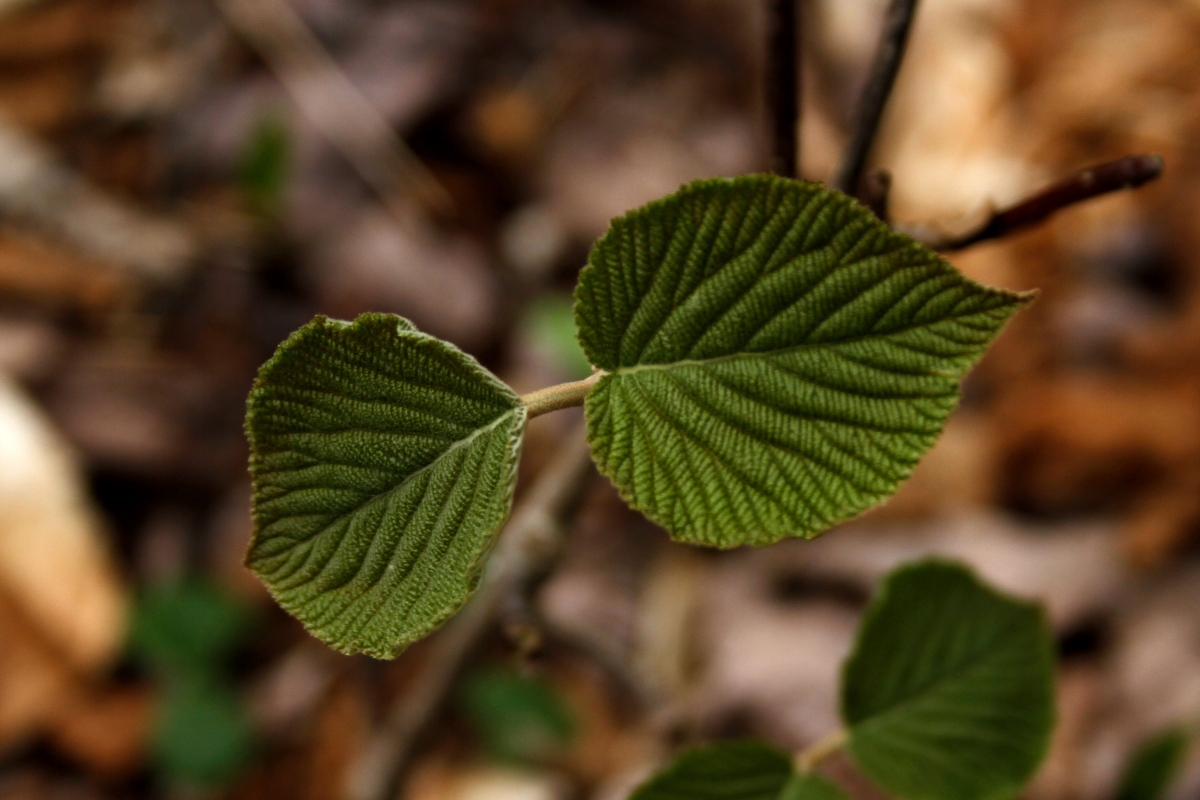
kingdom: Plantae
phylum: Tracheophyta
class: Magnoliopsida
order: Dipsacales
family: Viburnaceae
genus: Viburnum
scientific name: Viburnum lantanoides
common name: Hobblebush
